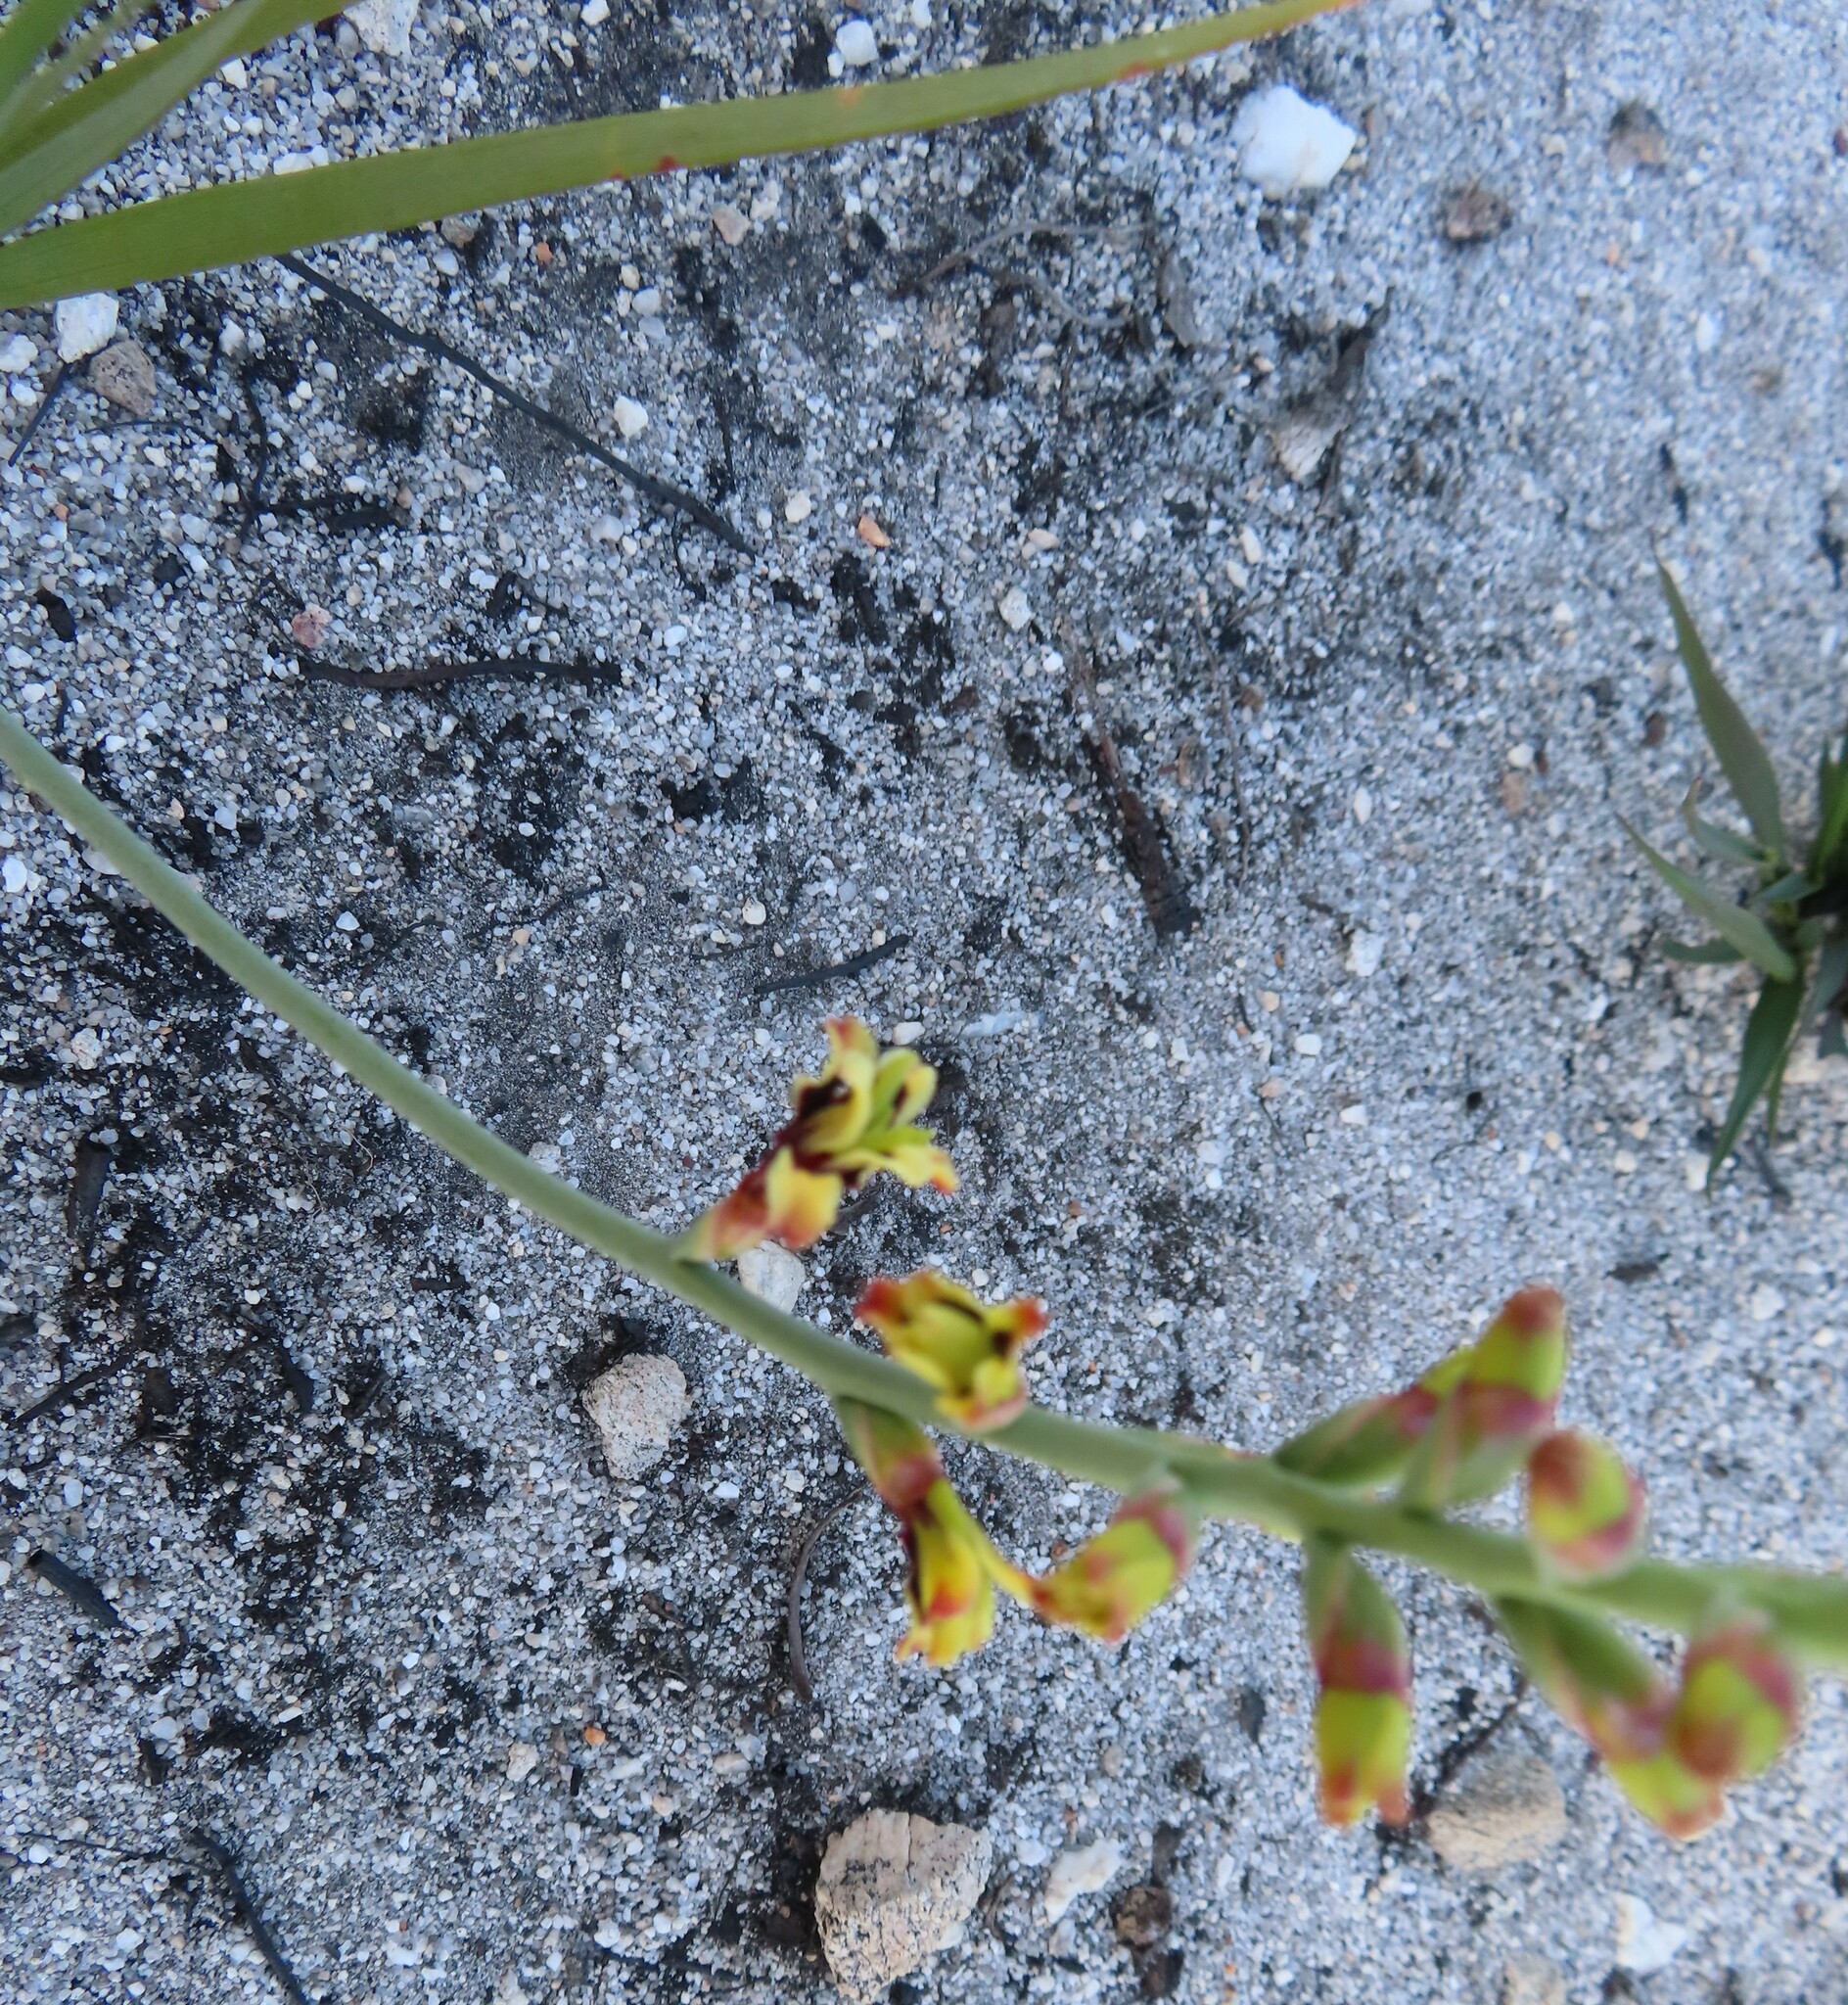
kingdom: Plantae
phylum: Tracheophyta
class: Liliopsida
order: Asparagales
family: Iridaceae
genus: Tritoniopsis
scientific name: Tritoniopsis parviflora
